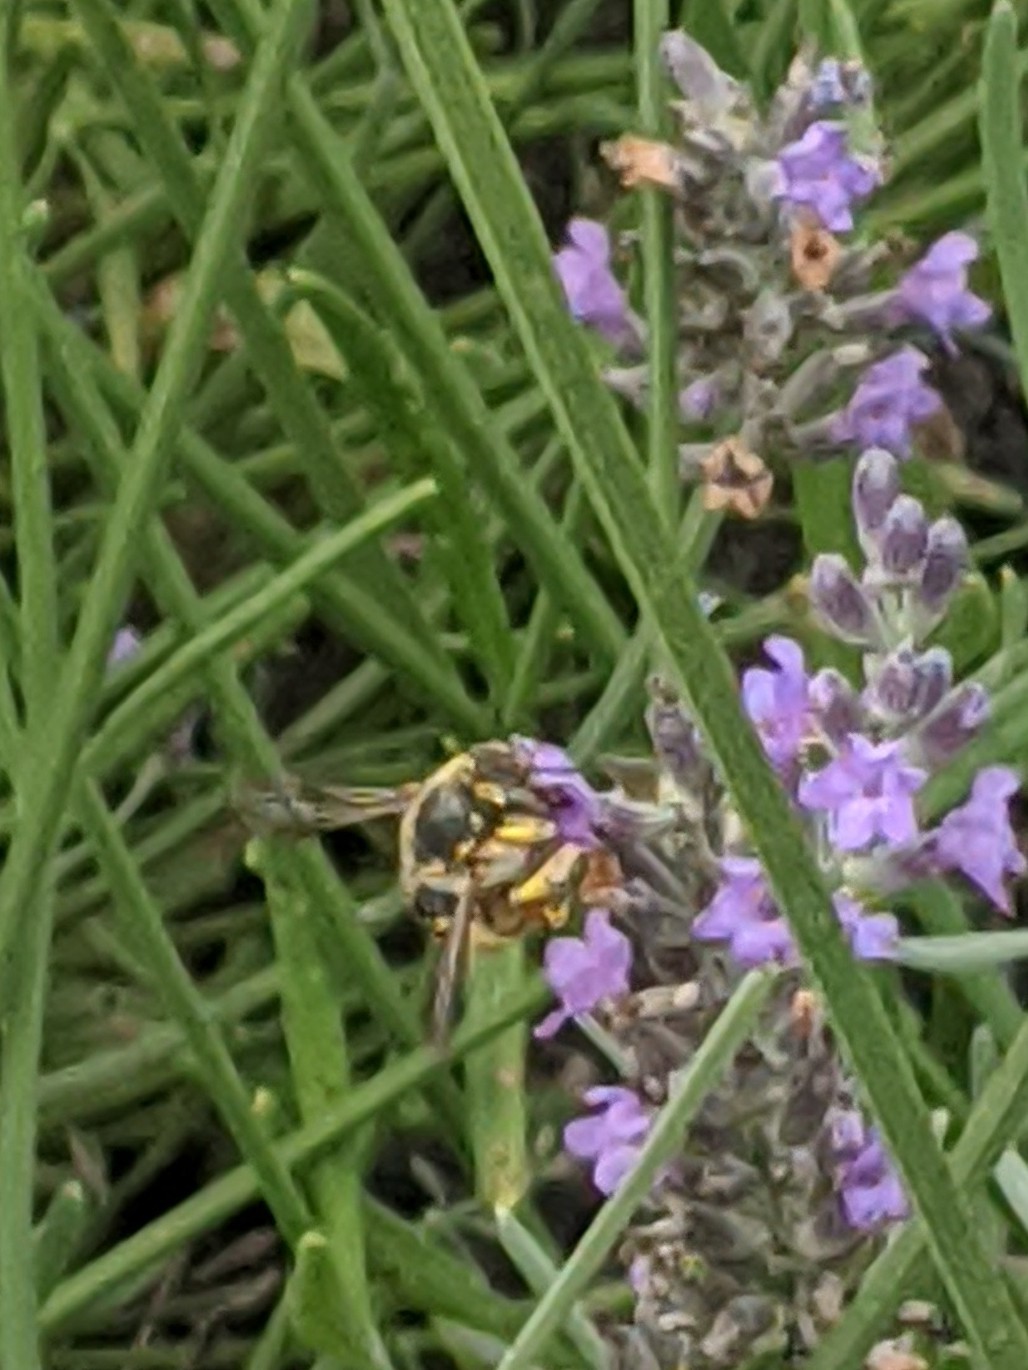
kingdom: Animalia
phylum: Arthropoda
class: Insecta
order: Hymenoptera
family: Megachilidae
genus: Anthidium
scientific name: Anthidium manicatum
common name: Wool carder bee
